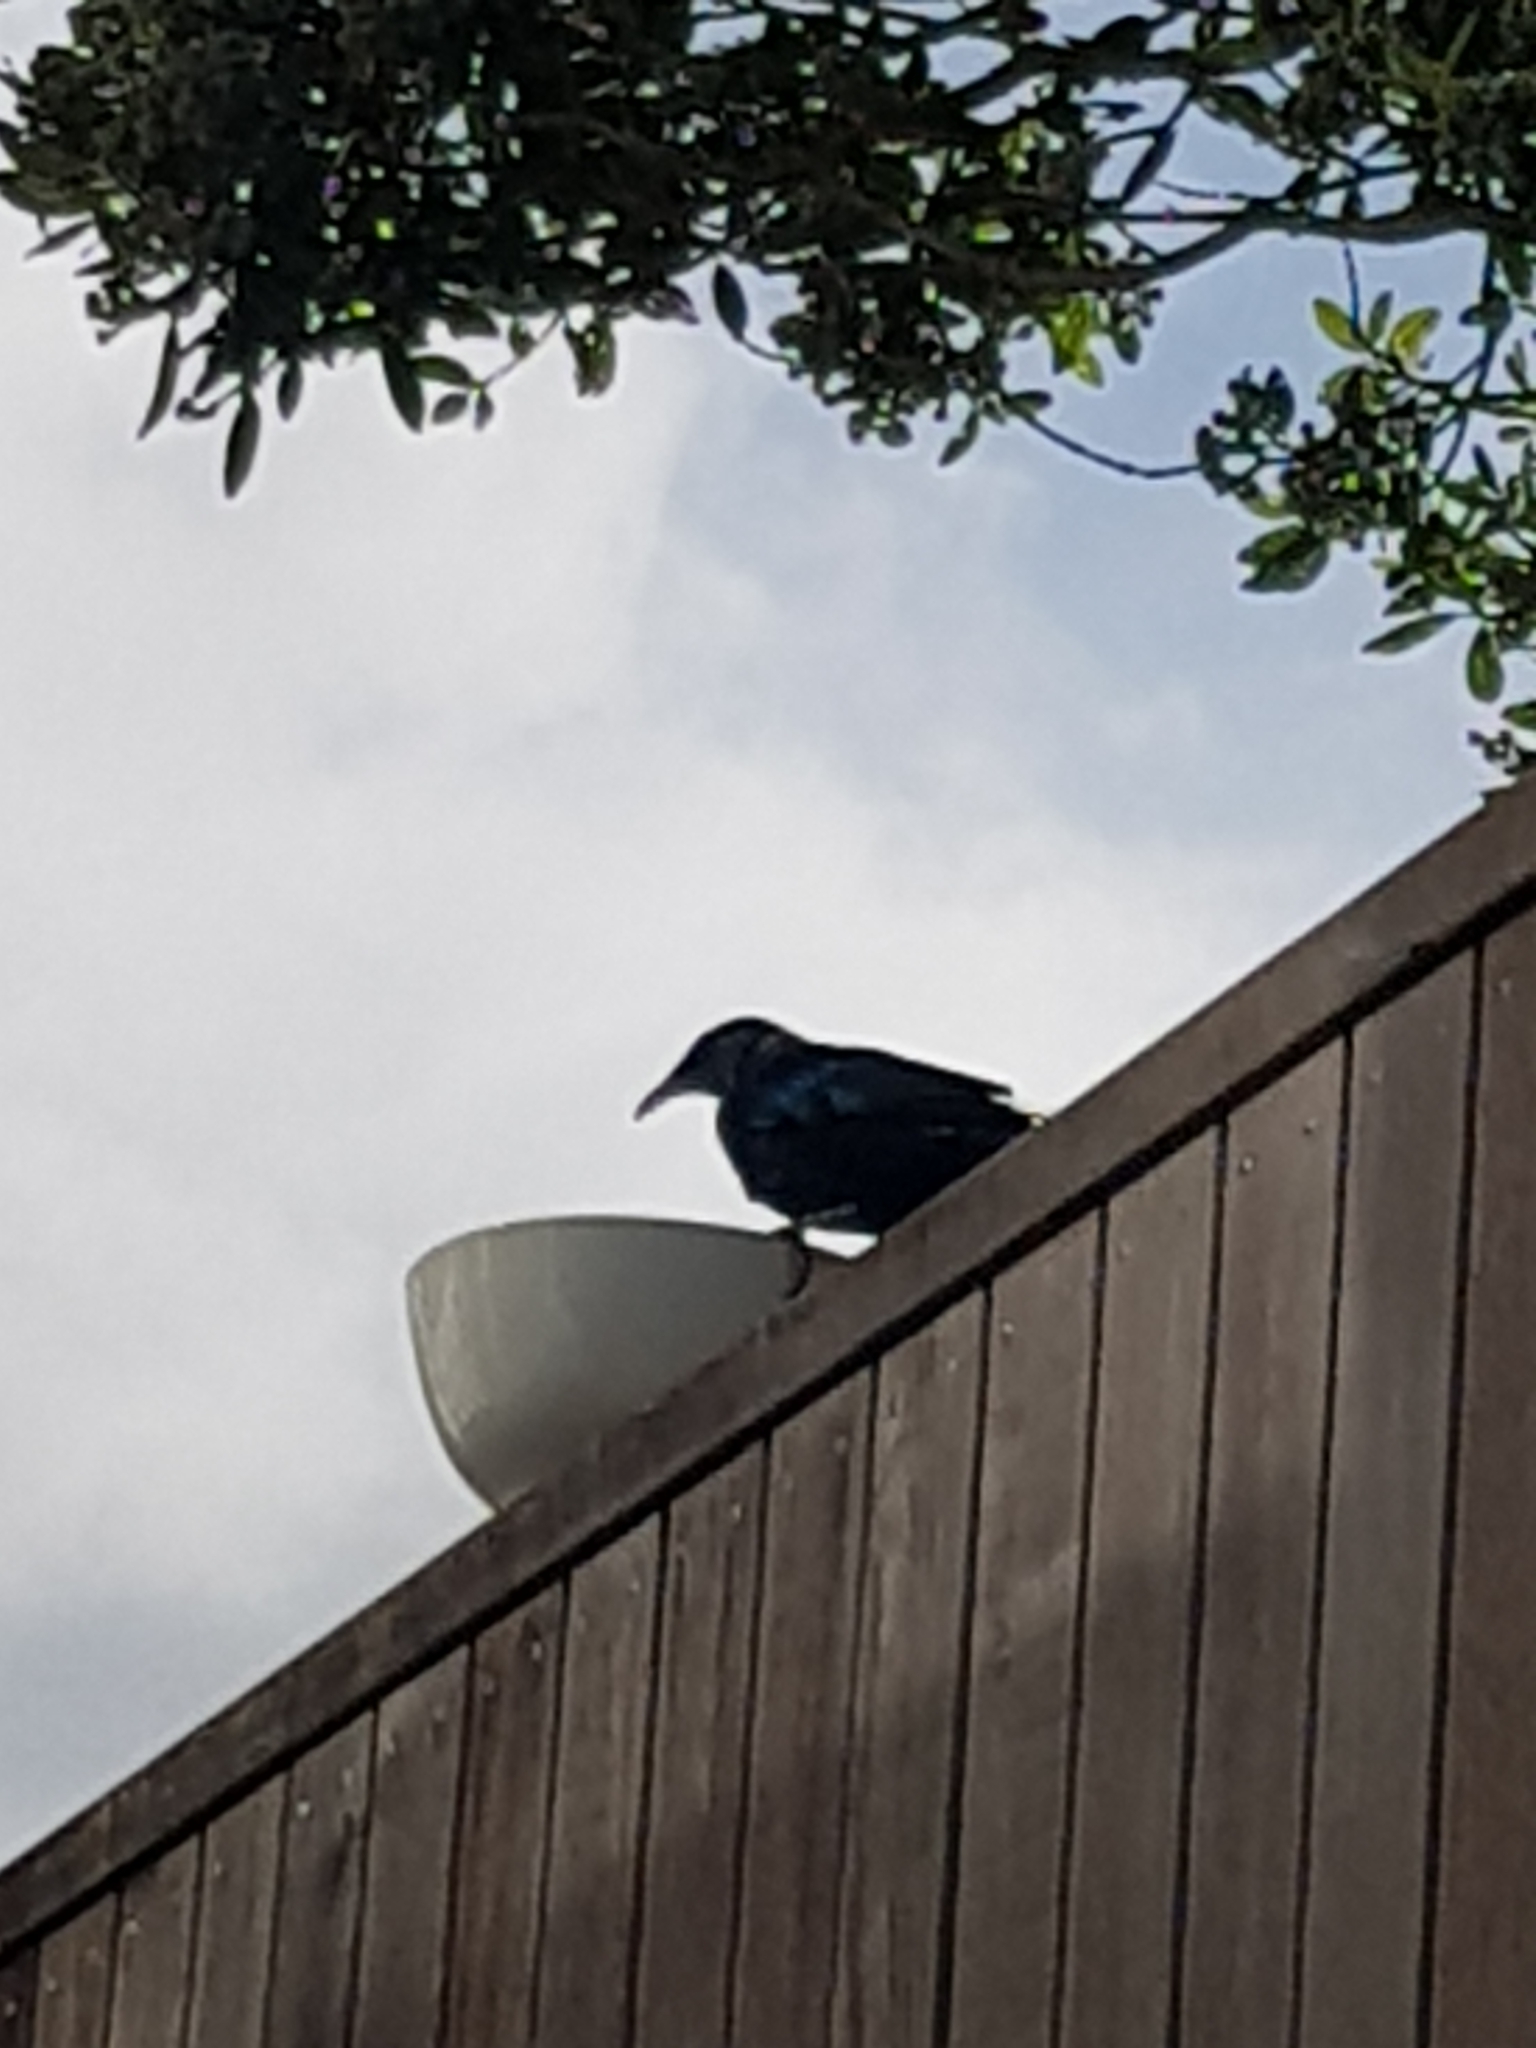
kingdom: Animalia
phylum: Chordata
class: Aves
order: Passeriformes
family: Meliphagidae
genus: Prosthemadera
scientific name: Prosthemadera novaeseelandiae
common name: Tui
